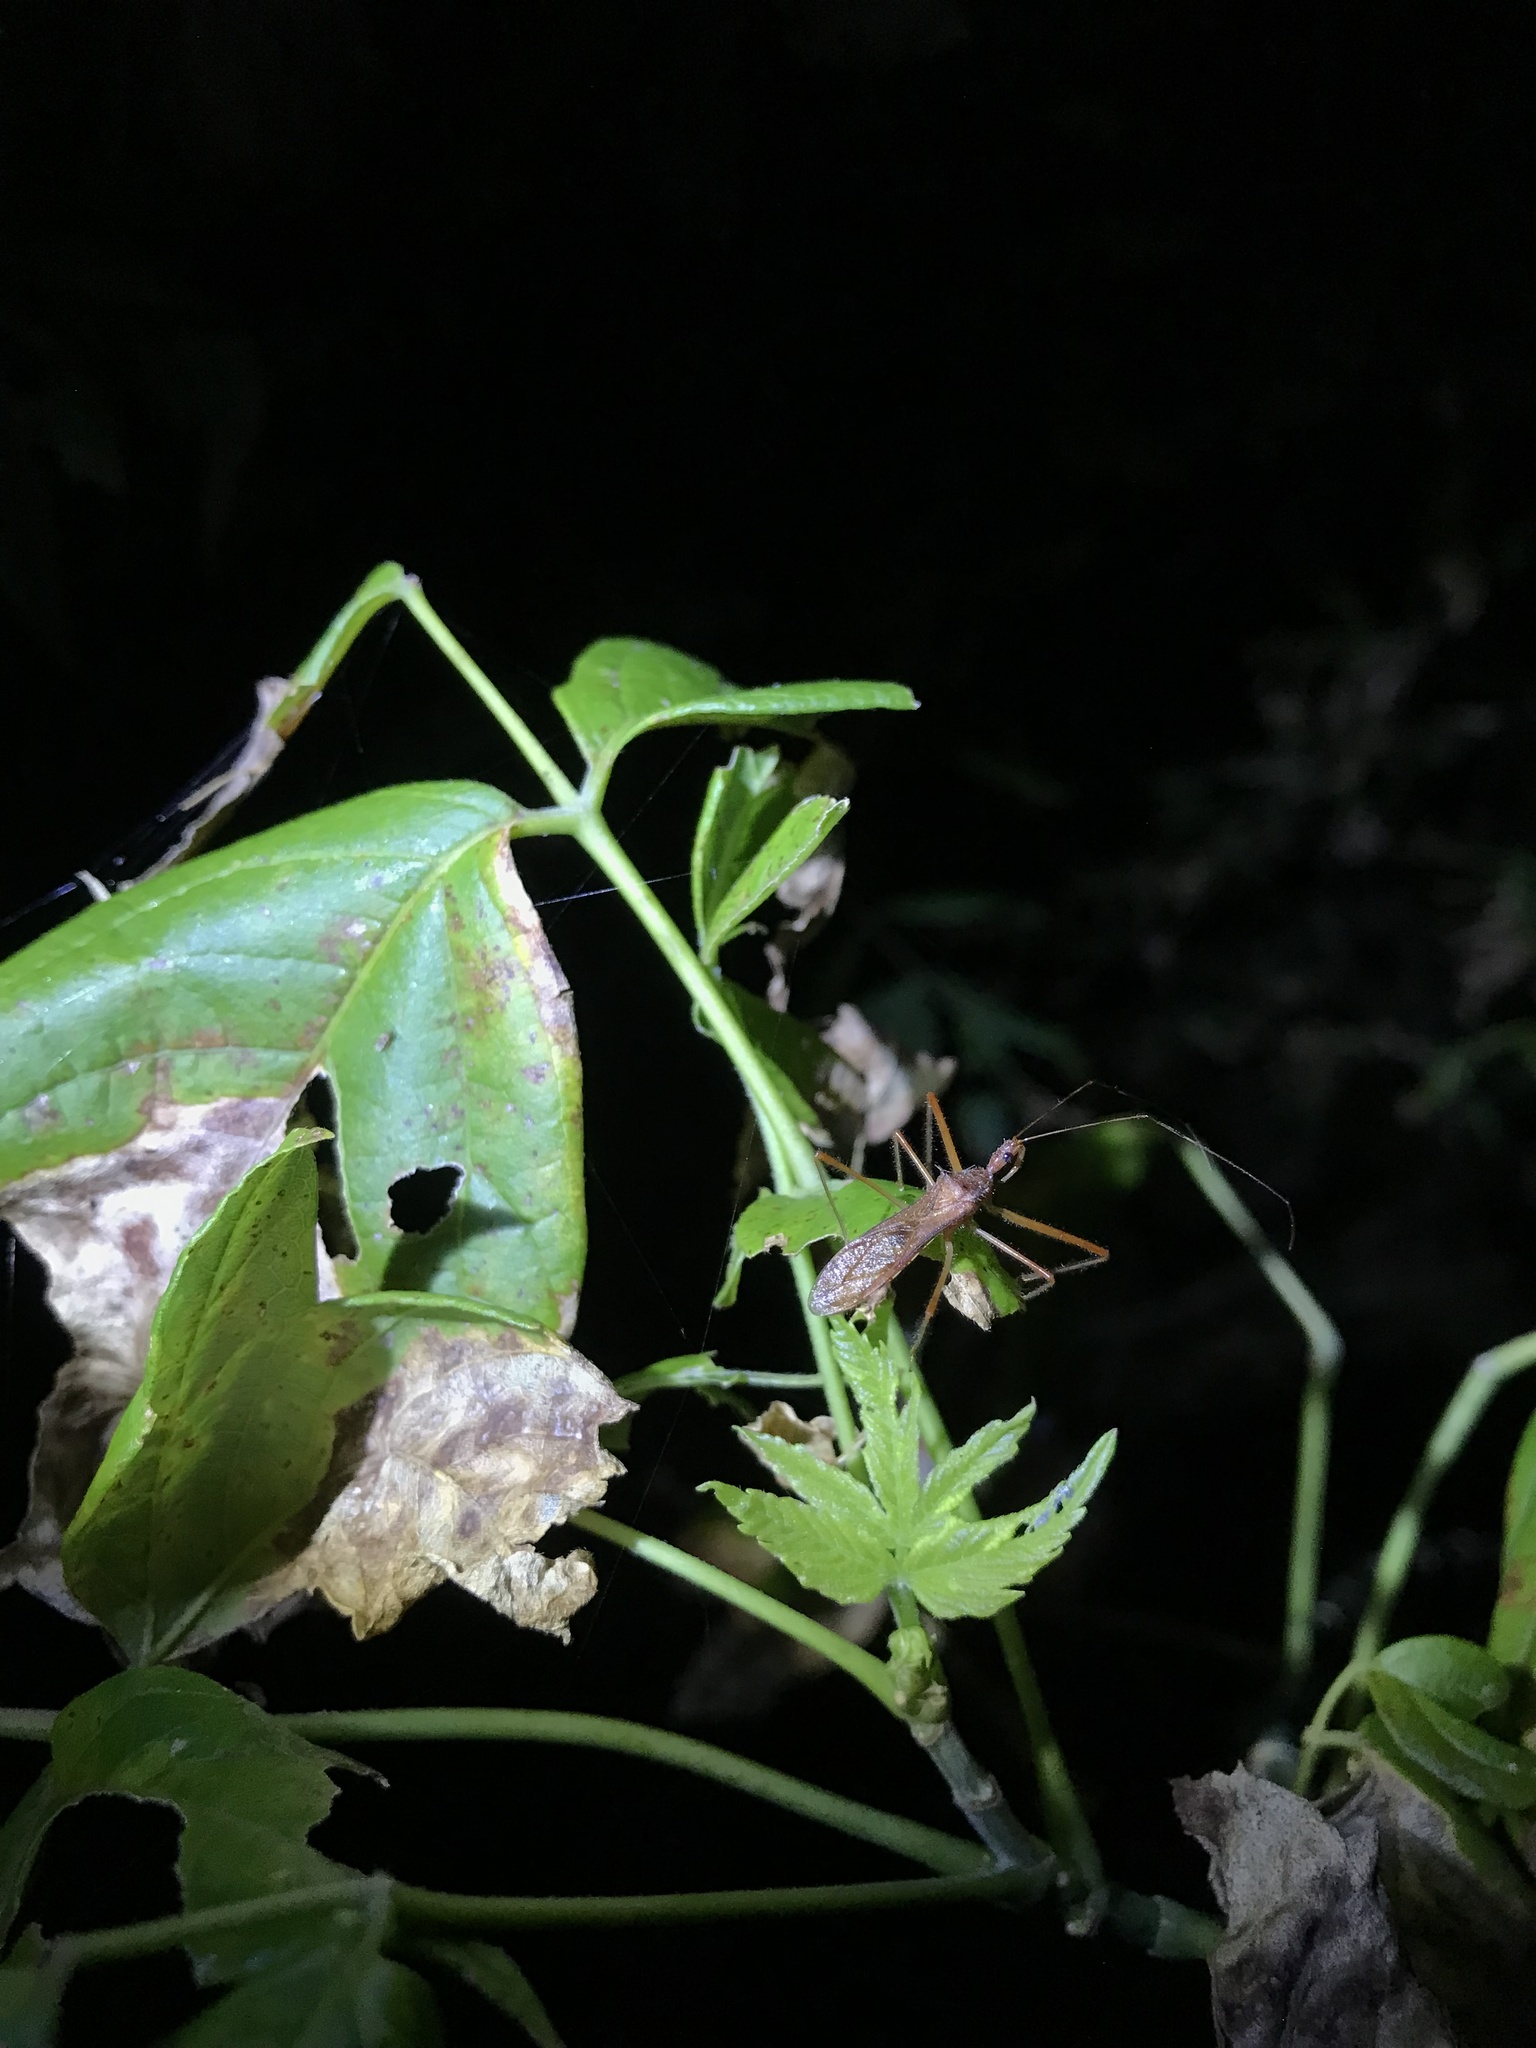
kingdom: Animalia
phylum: Arthropoda
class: Insecta
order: Hemiptera
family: Reduviidae
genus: Rocconota
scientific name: Rocconota annulicornis
